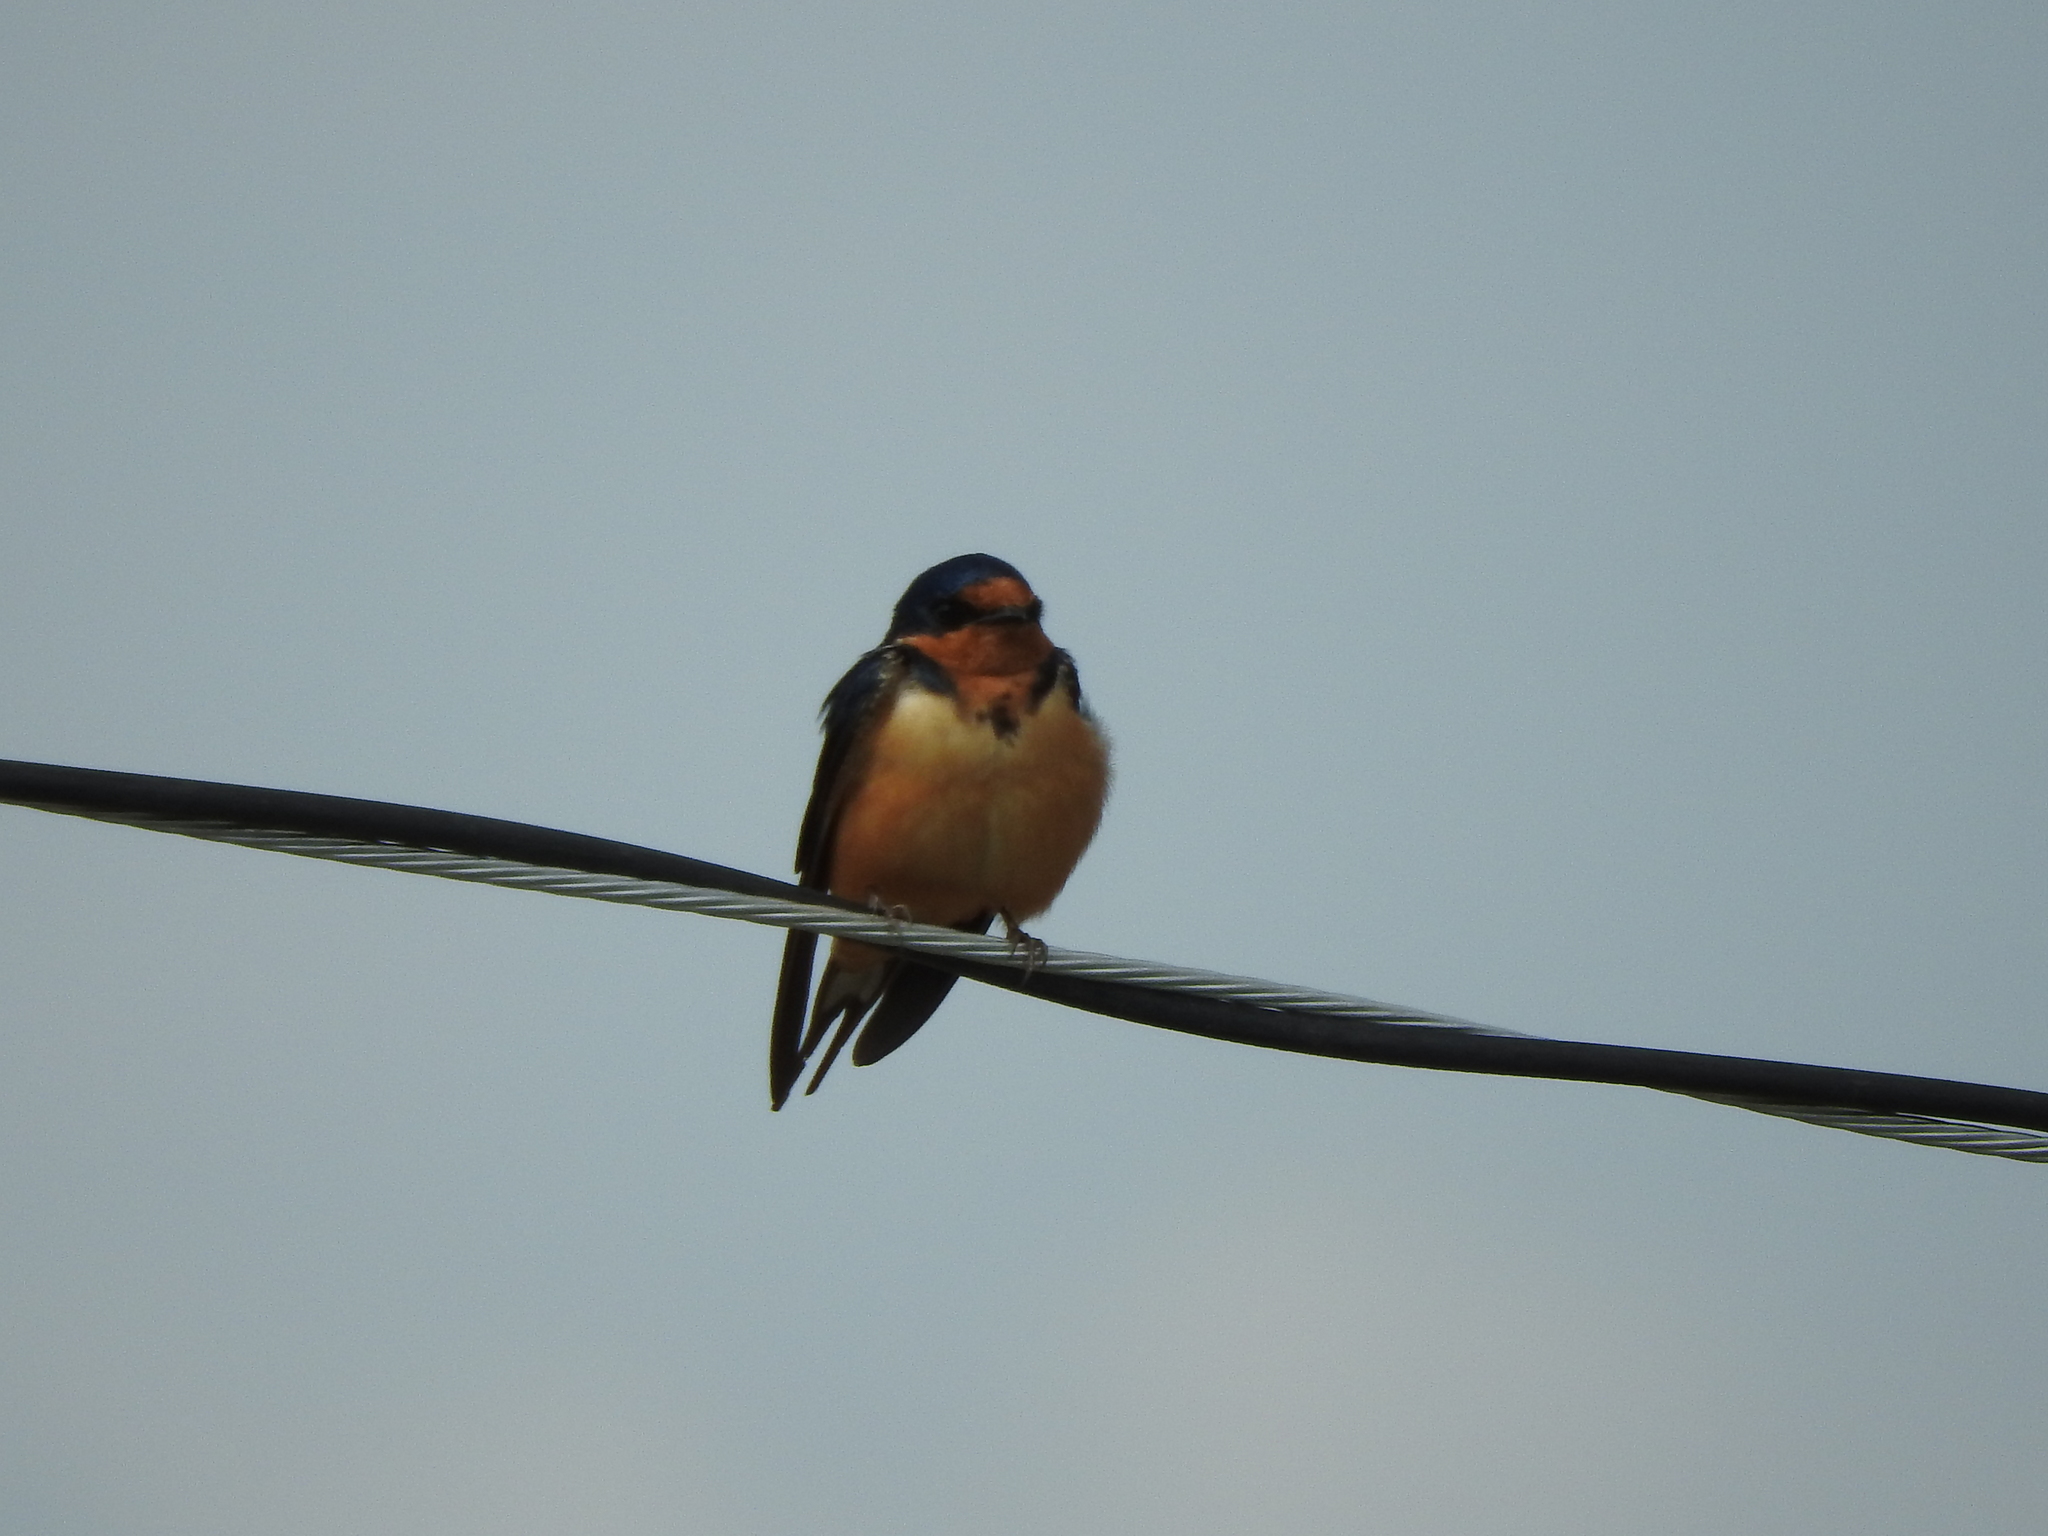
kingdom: Animalia
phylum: Chordata
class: Aves
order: Passeriformes
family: Hirundinidae
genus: Hirundo
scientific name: Hirundo rustica
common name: Barn swallow
